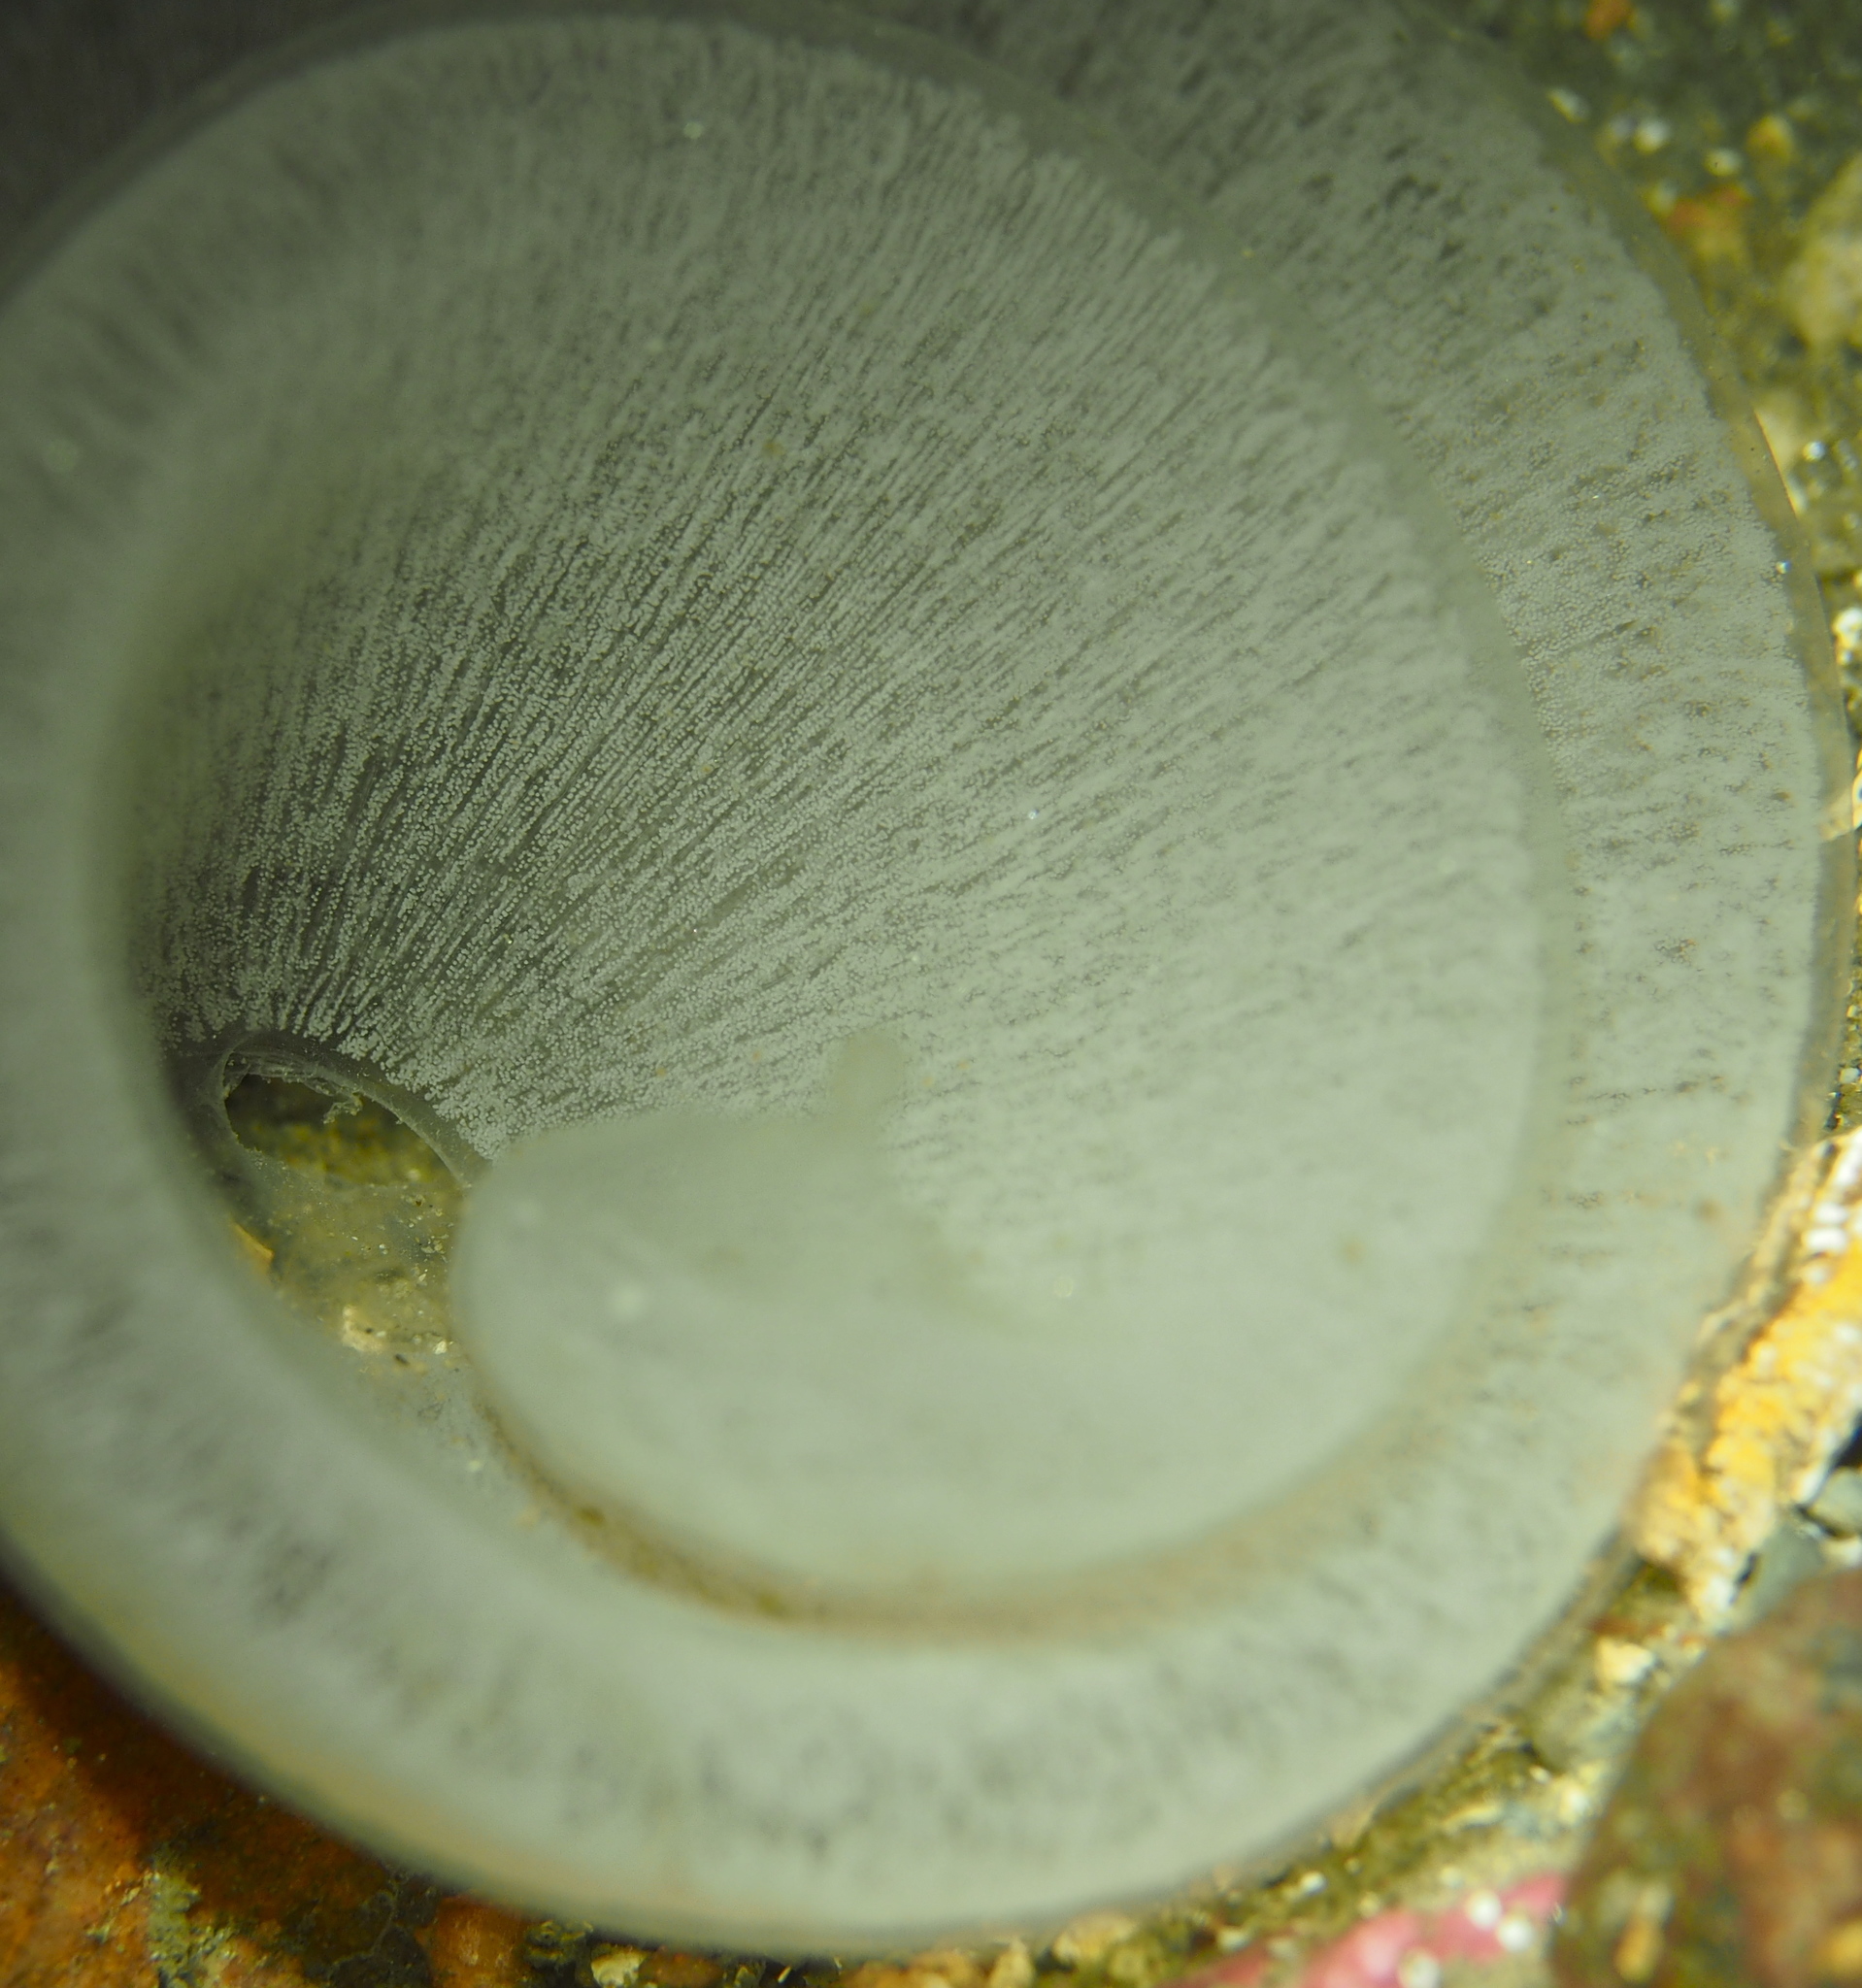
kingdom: Animalia
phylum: Mollusca
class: Gastropoda
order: Pleurobranchida
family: Pleurobranchidae
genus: Pleurobranchus
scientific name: Pleurobranchus membranaceus
